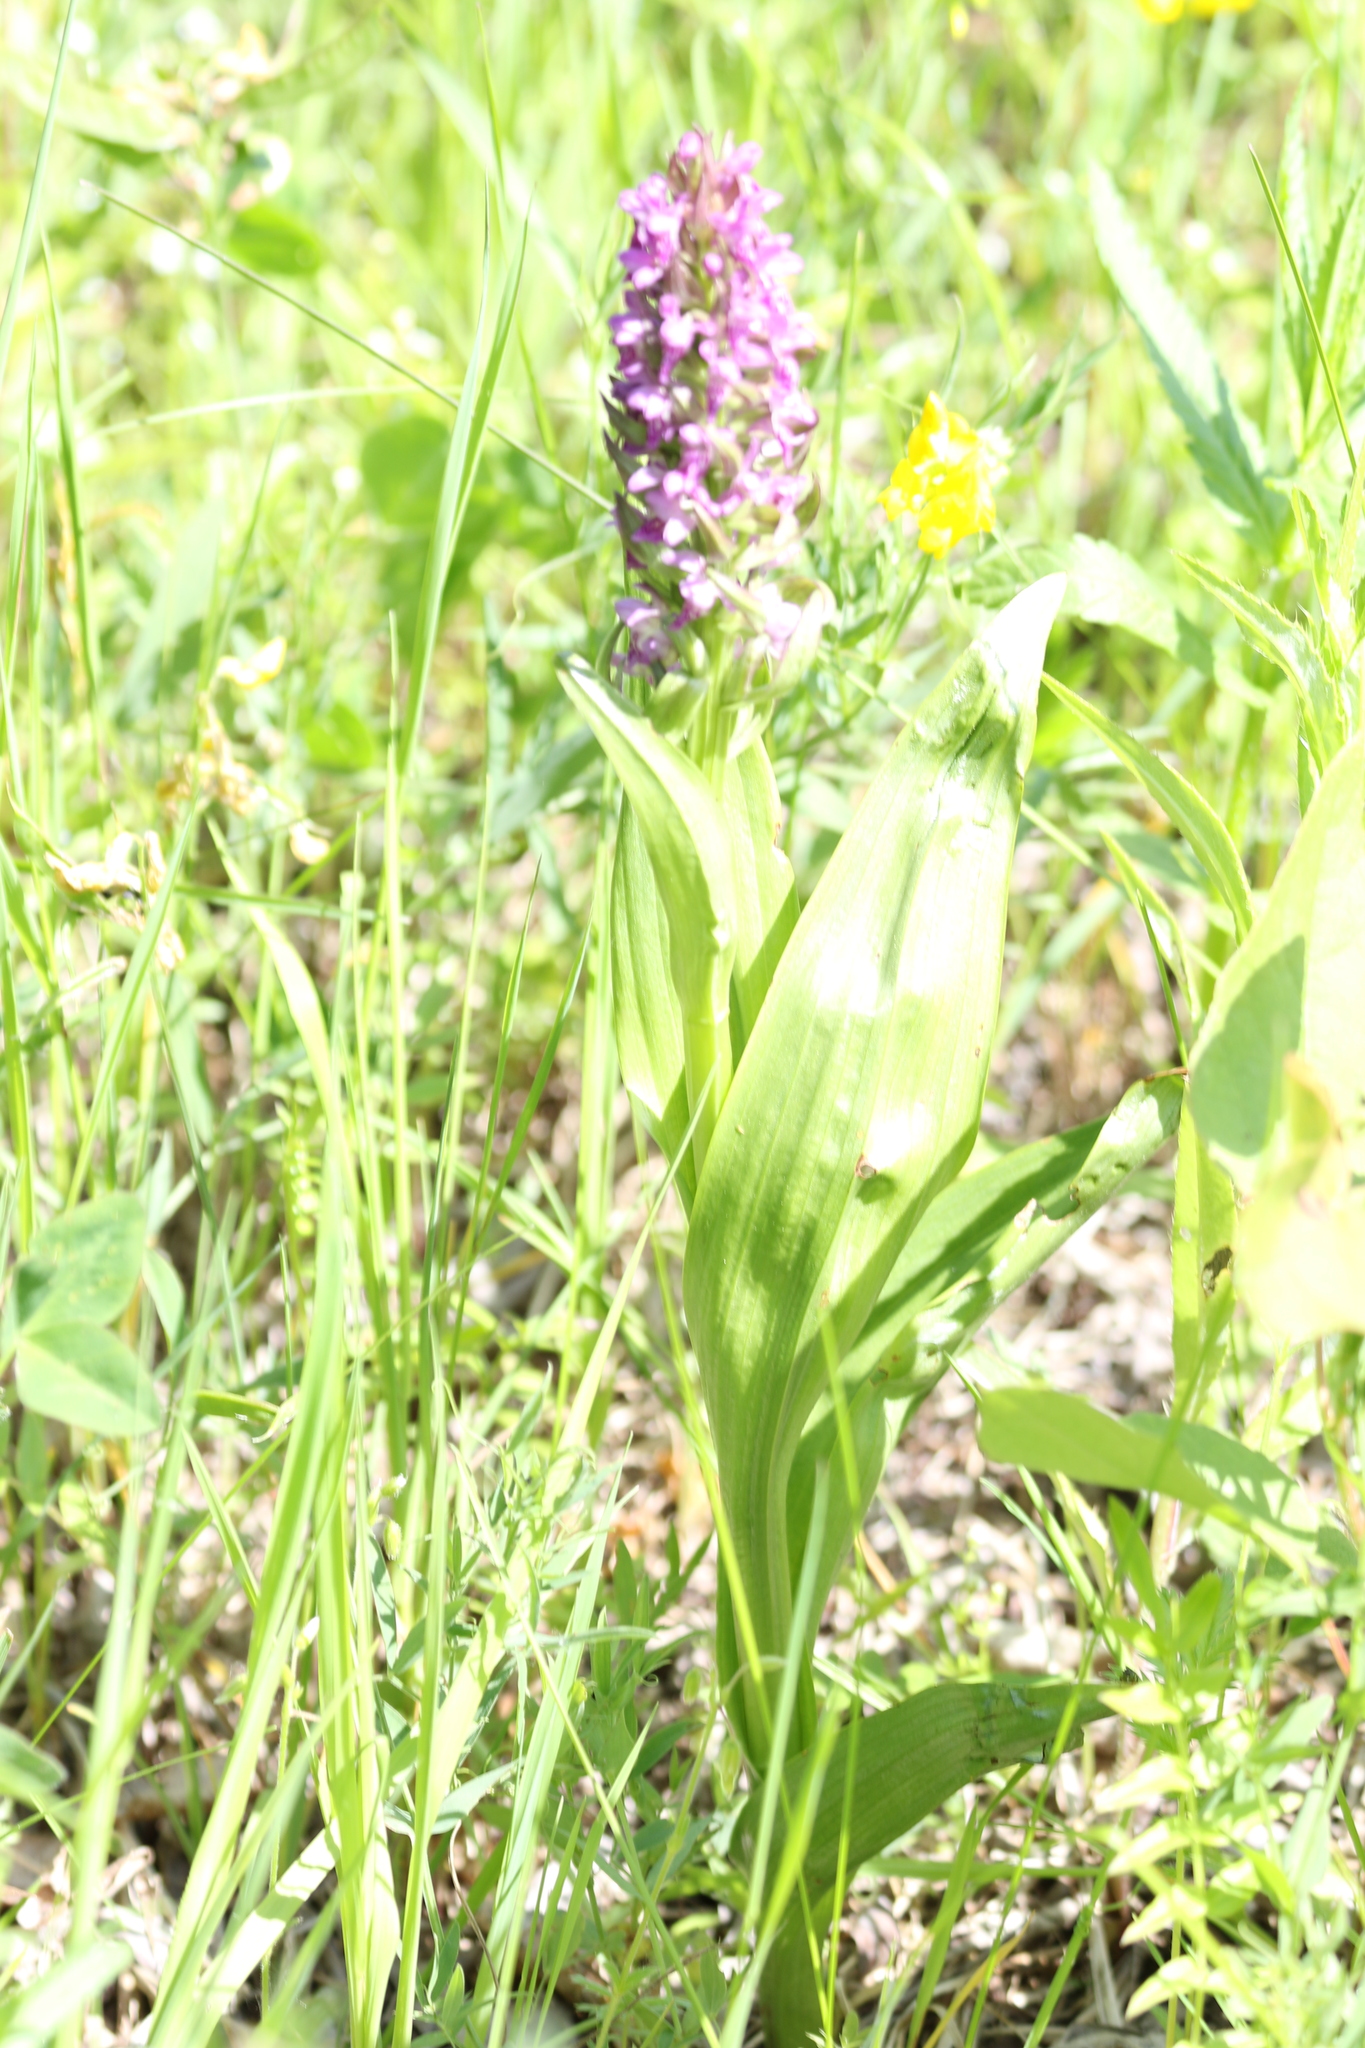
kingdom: Plantae
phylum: Tracheophyta
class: Liliopsida
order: Asparagales
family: Orchidaceae
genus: Dactylorhiza
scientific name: Dactylorhiza incarnata
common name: Early marsh-orchid
